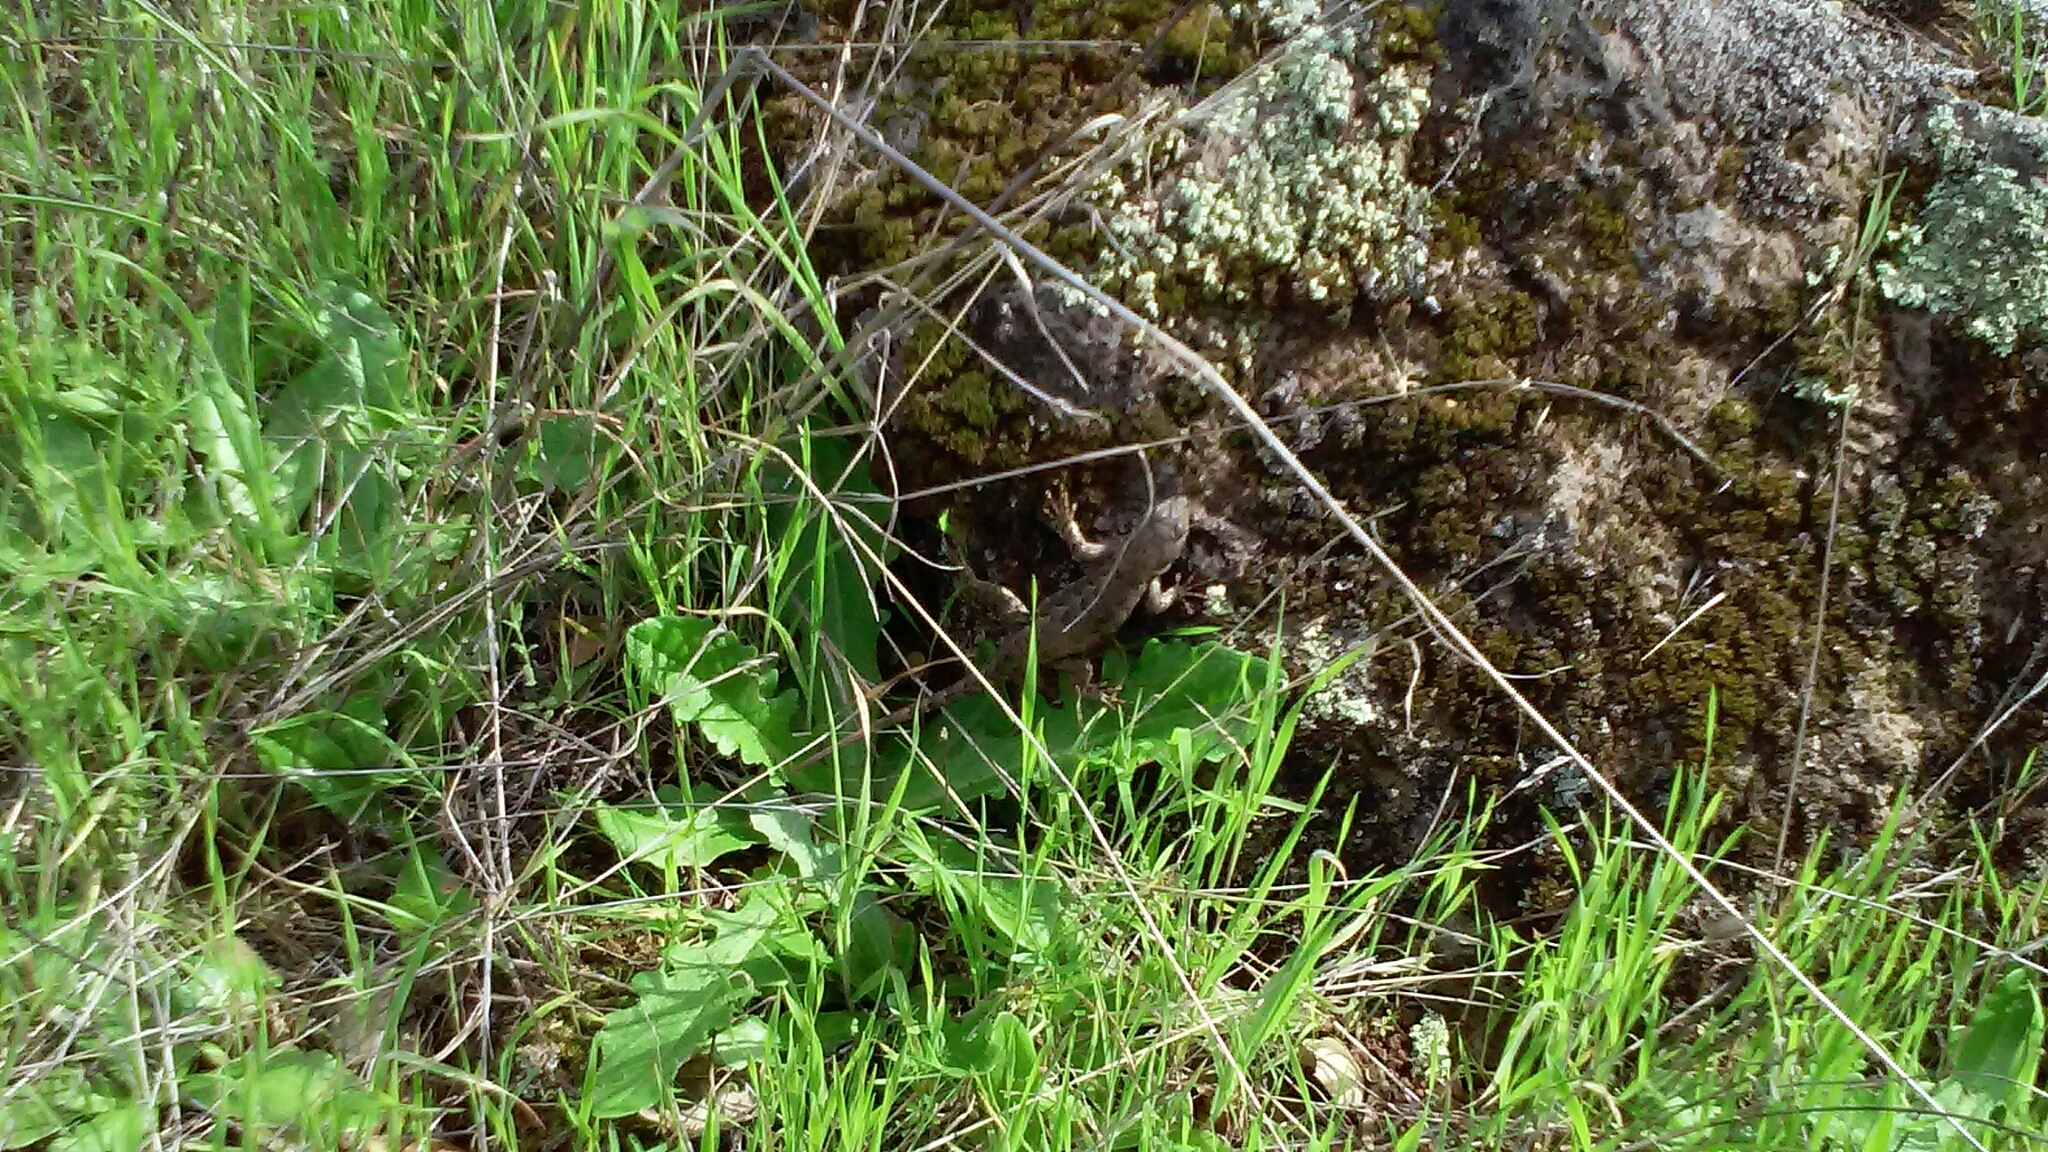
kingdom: Animalia
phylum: Chordata
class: Squamata
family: Phrynosomatidae
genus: Sceloporus
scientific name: Sceloporus occidentalis
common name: Western fence lizard
